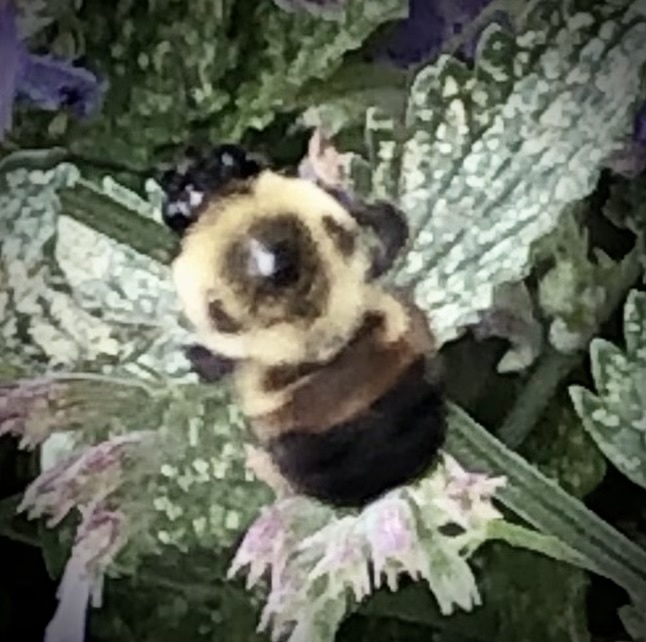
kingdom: Animalia
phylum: Arthropoda
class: Insecta
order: Hymenoptera
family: Apidae
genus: Bombus
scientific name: Bombus griseocollis
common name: Brown-belted bumble bee
